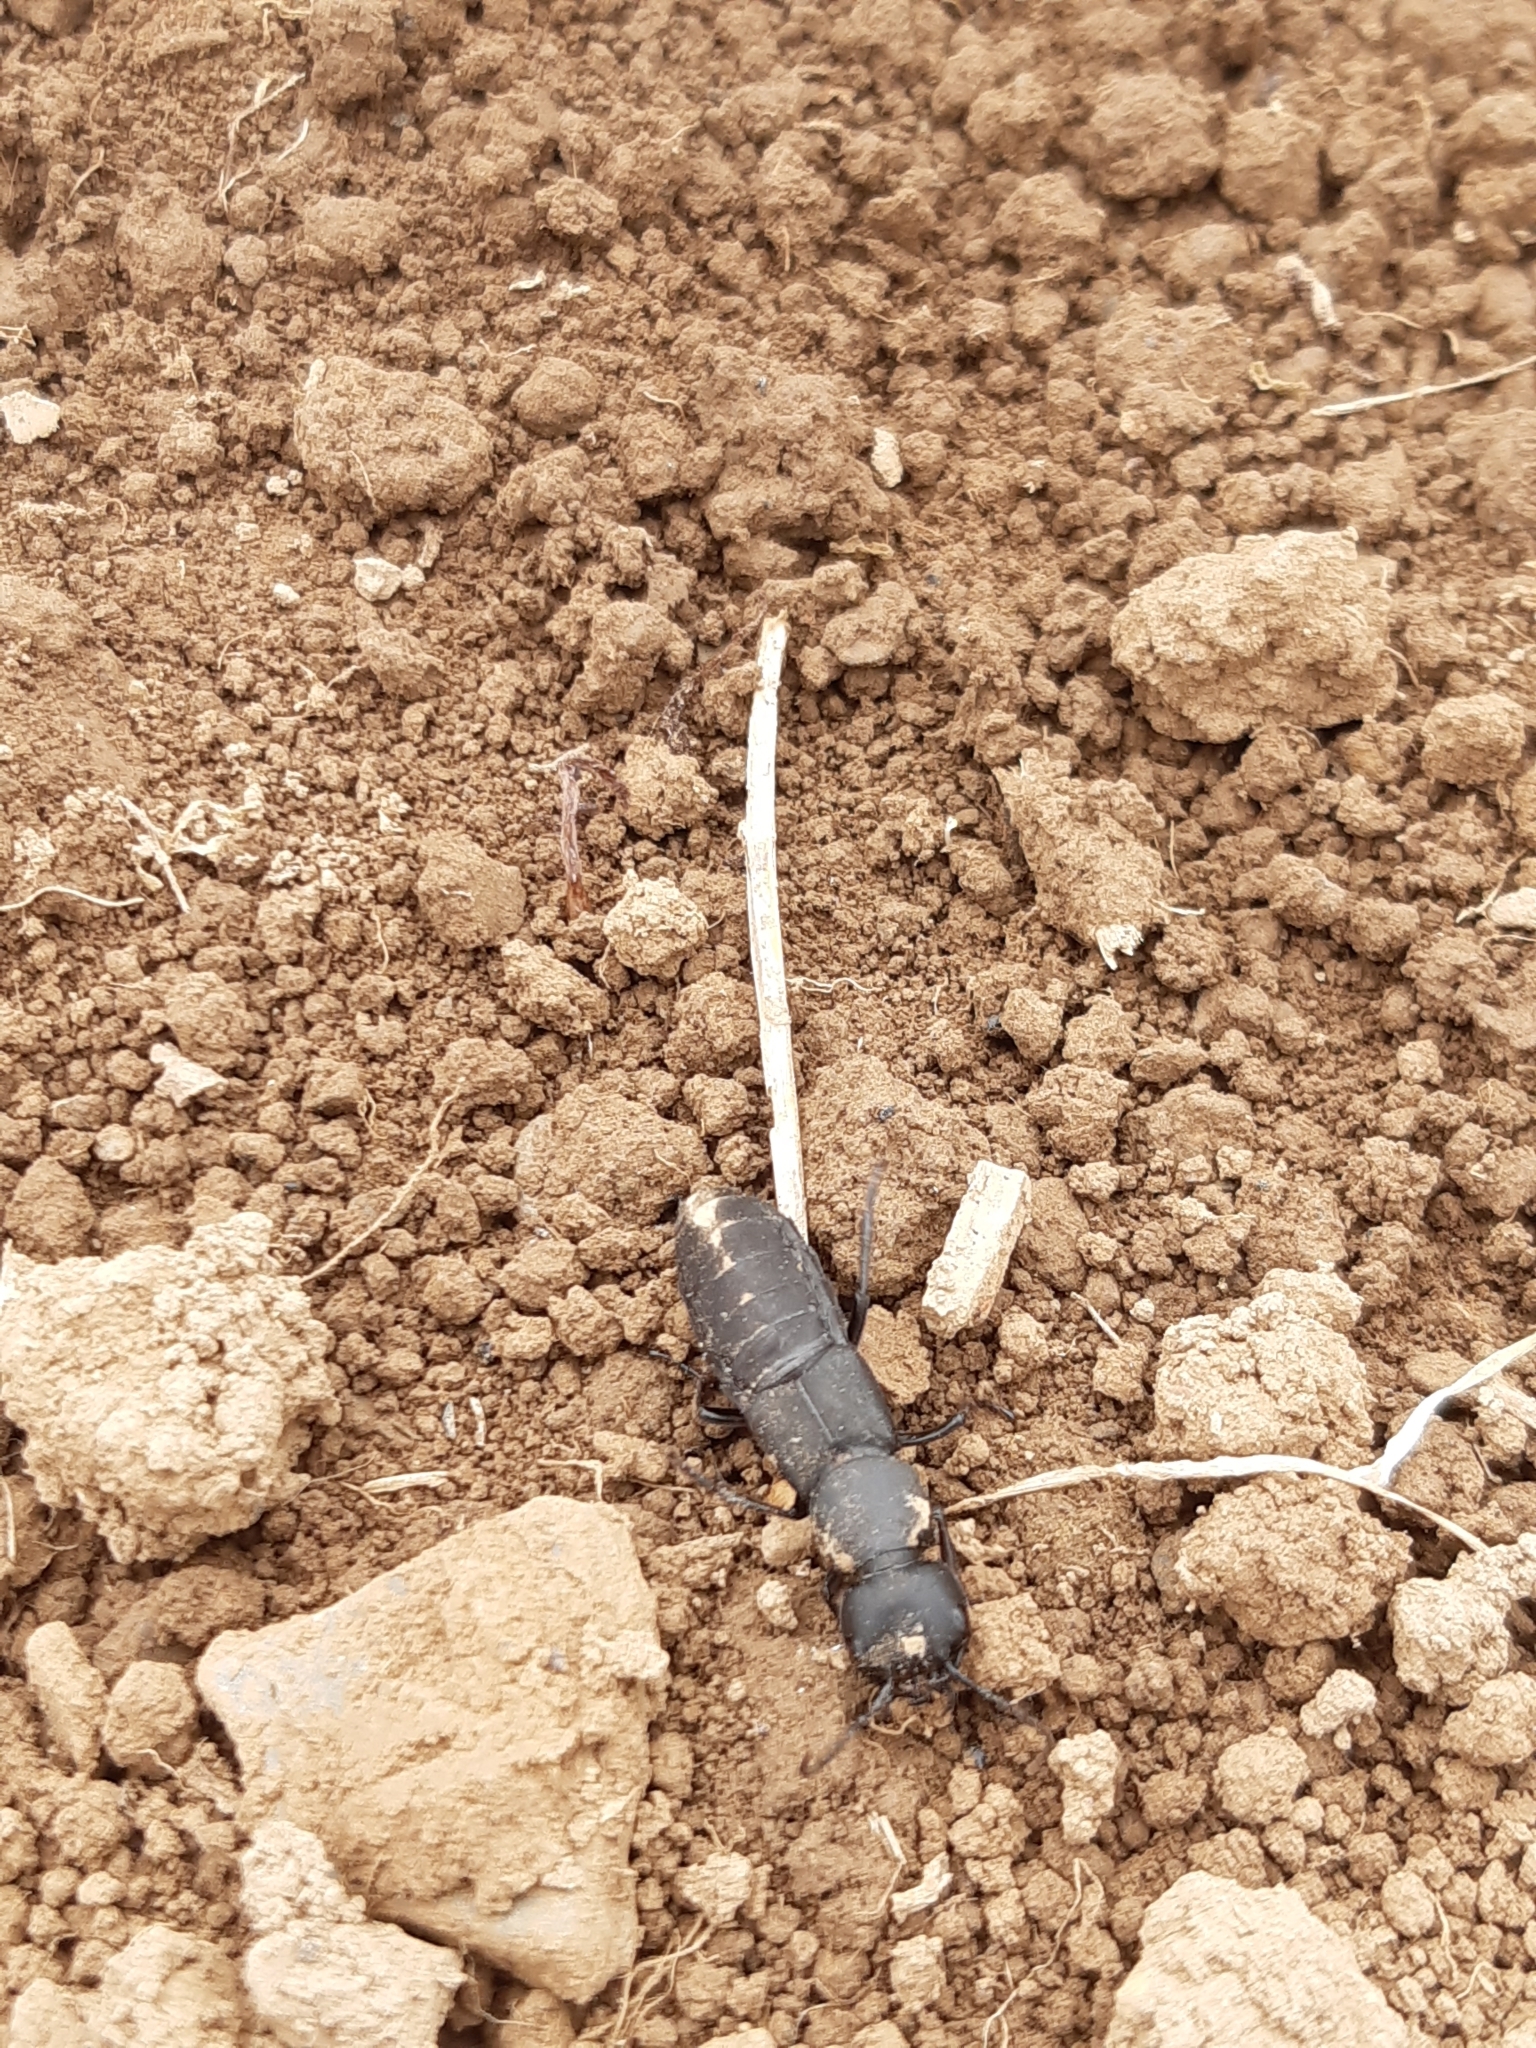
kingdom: Animalia
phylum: Arthropoda
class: Insecta
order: Coleoptera
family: Staphylinidae
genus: Ocypus
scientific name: Ocypus olens
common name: Devil's coach-horse
